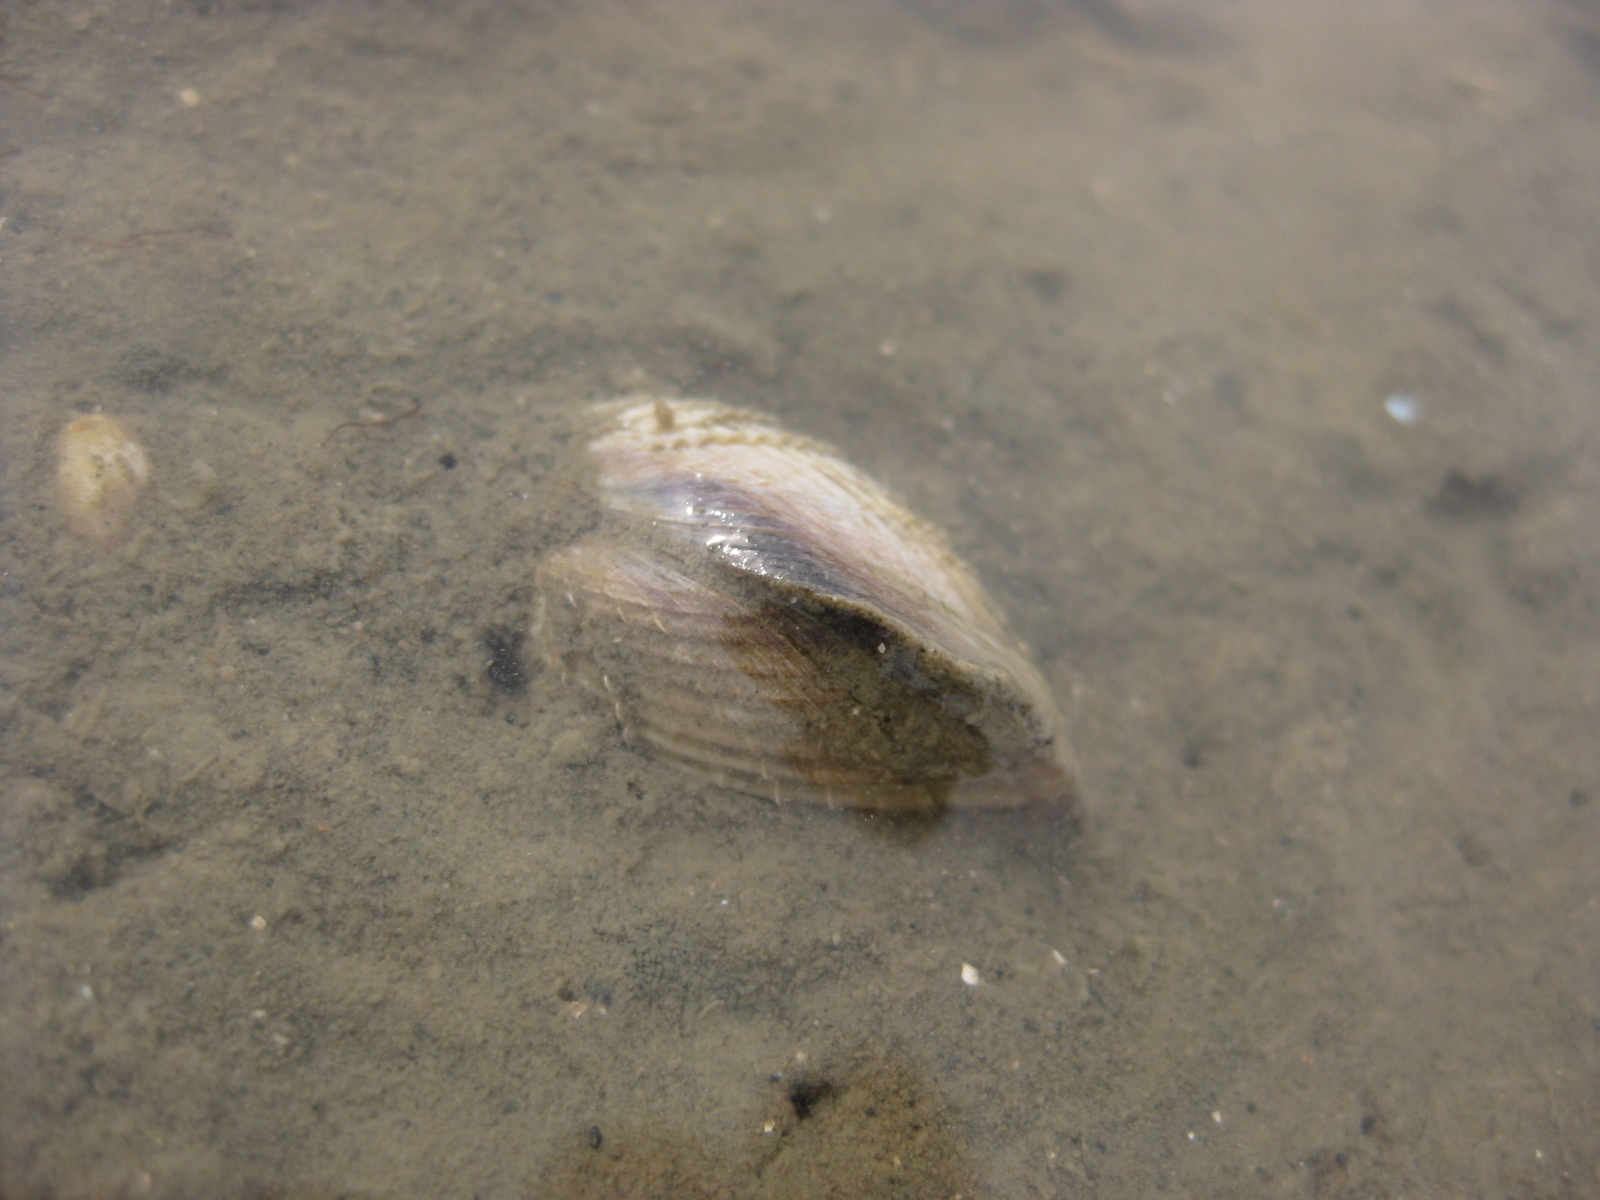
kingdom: Animalia
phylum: Mollusca
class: Bivalvia
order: Venerida
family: Veneridae
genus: Austrovenus
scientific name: Austrovenus stutchburyi
